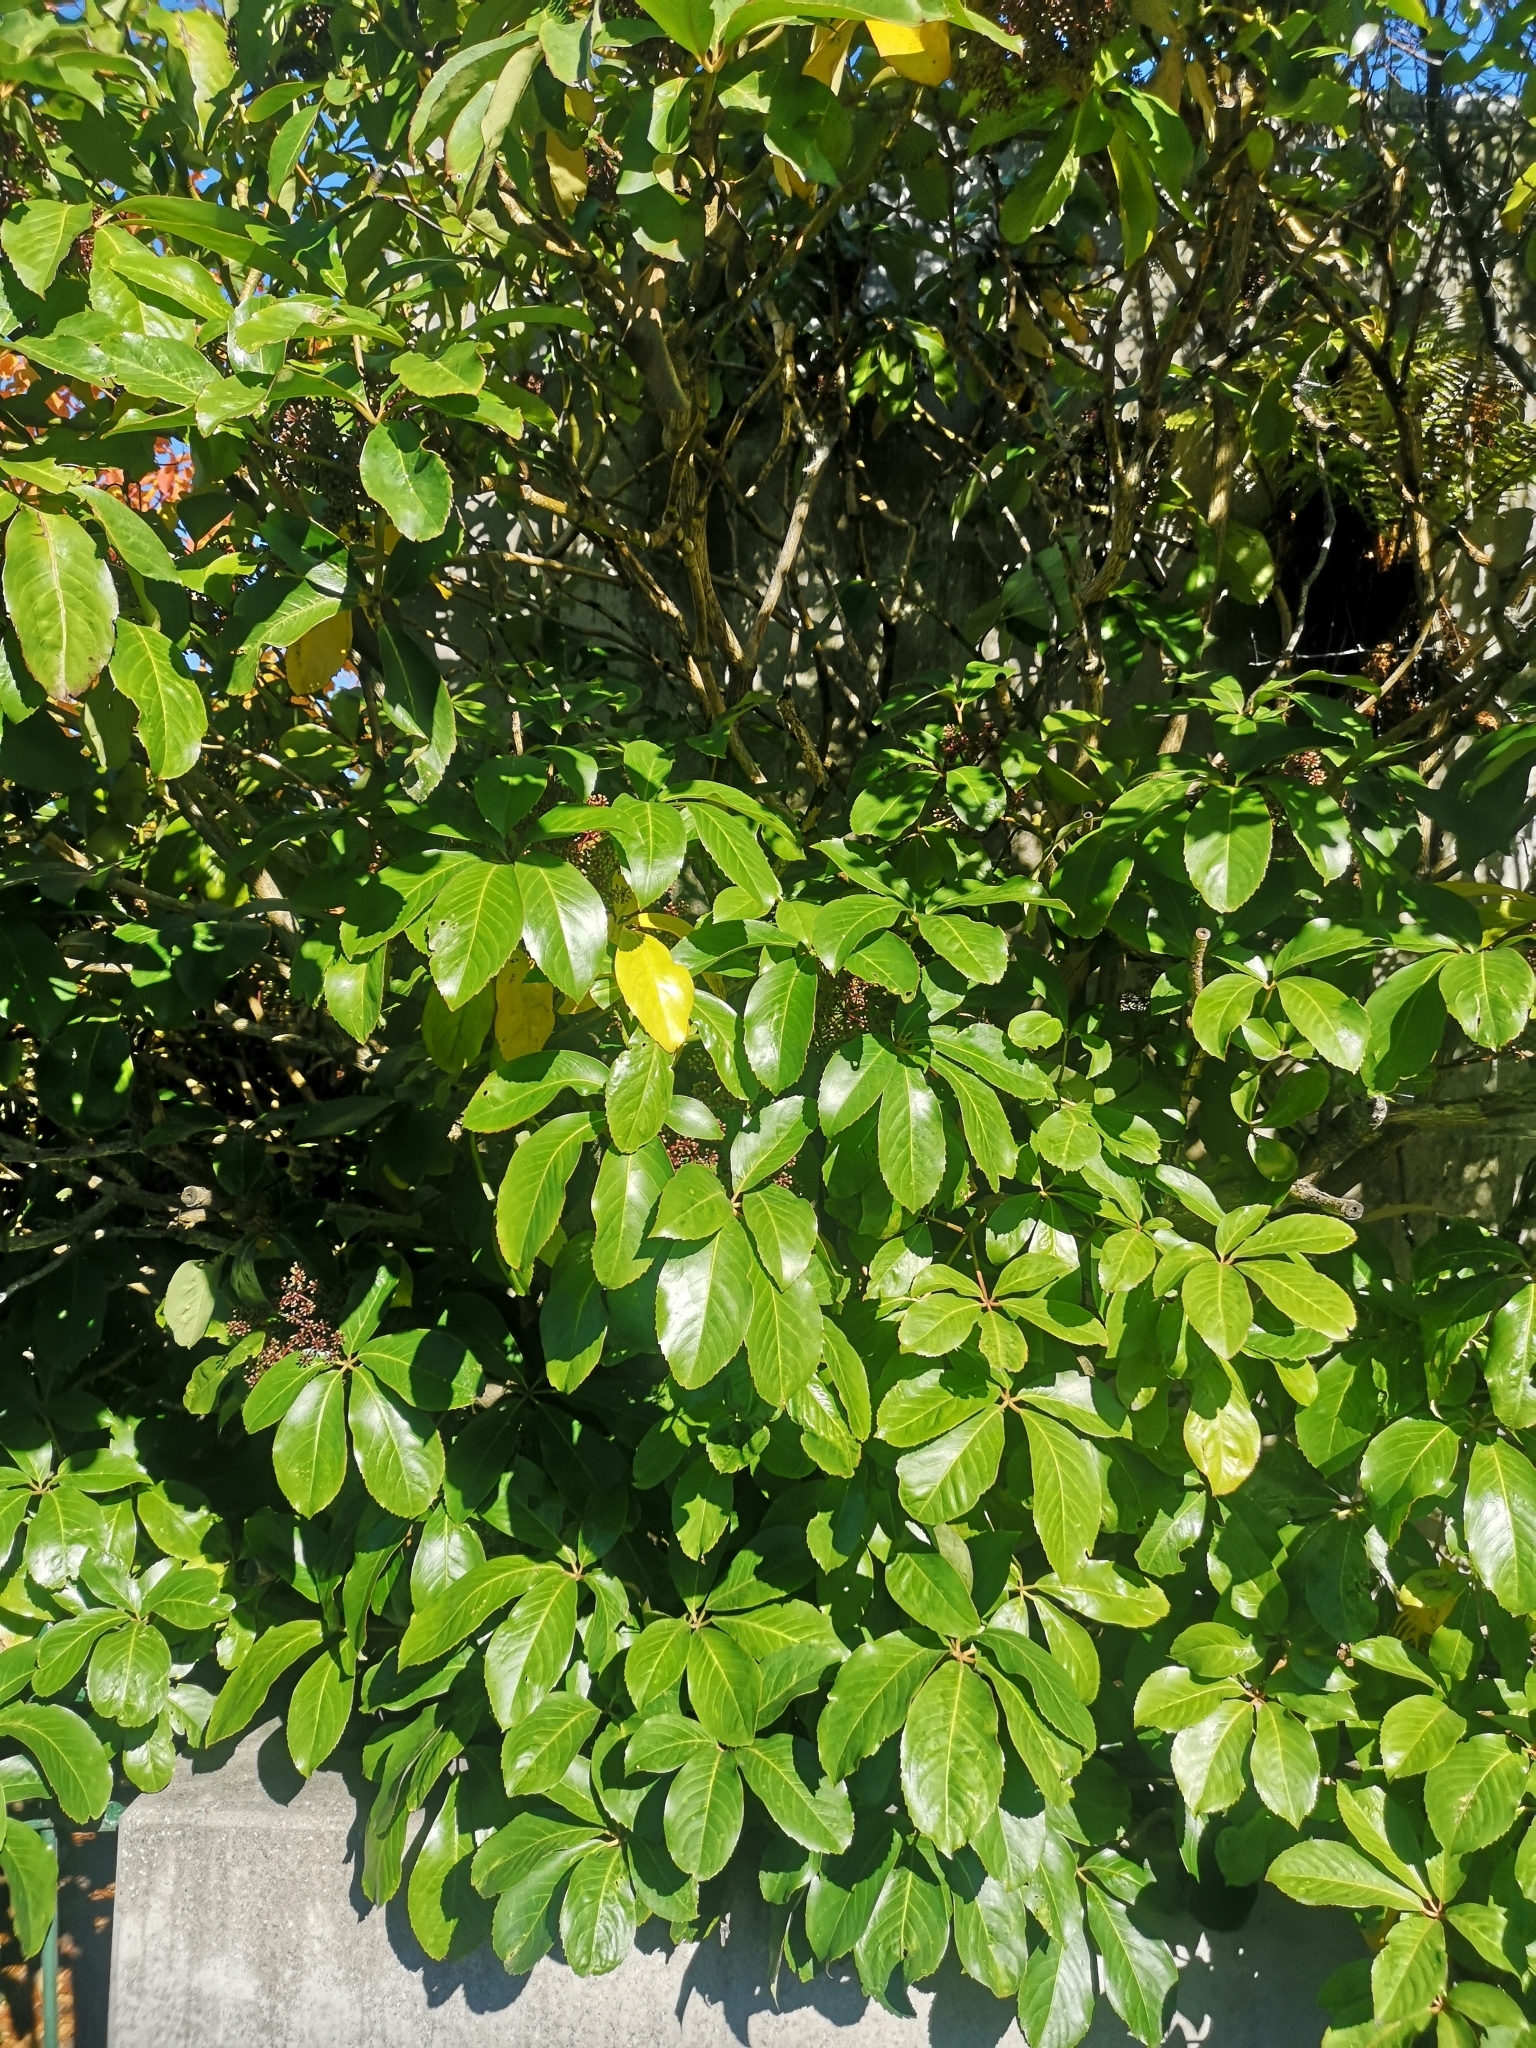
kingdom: Plantae
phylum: Tracheophyta
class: Magnoliopsida
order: Apiales
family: Araliaceae
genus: Neopanax
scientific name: Neopanax laetus
